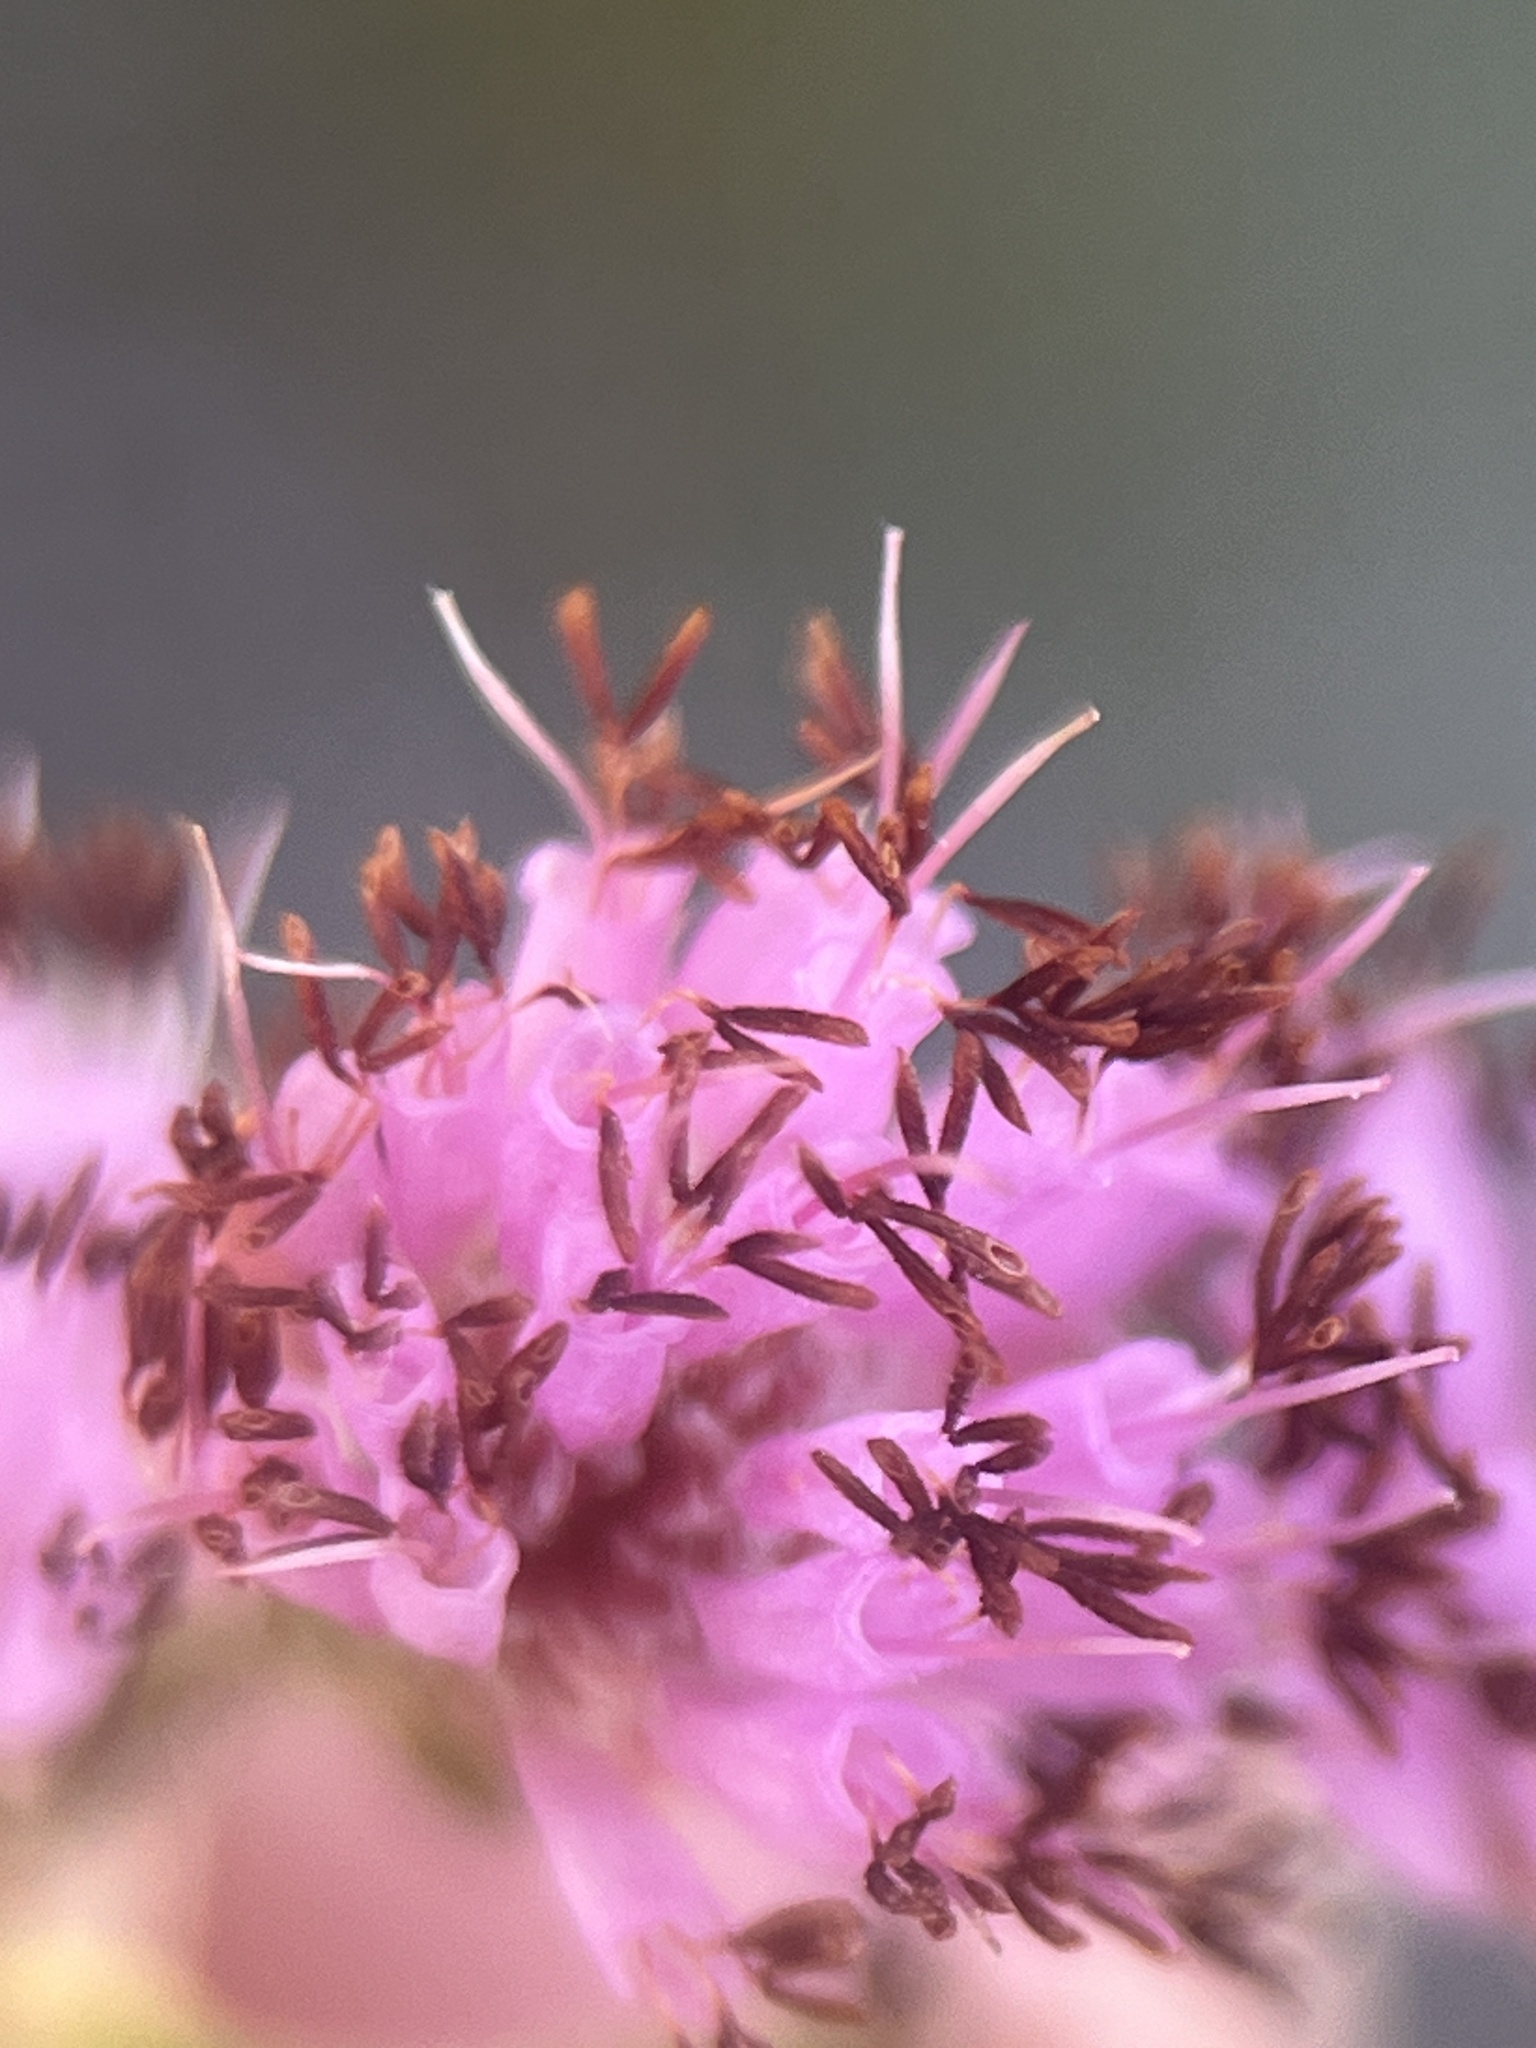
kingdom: Plantae
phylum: Tracheophyta
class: Magnoliopsida
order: Ericales
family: Ericaceae
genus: Erica
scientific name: Erica labialis
